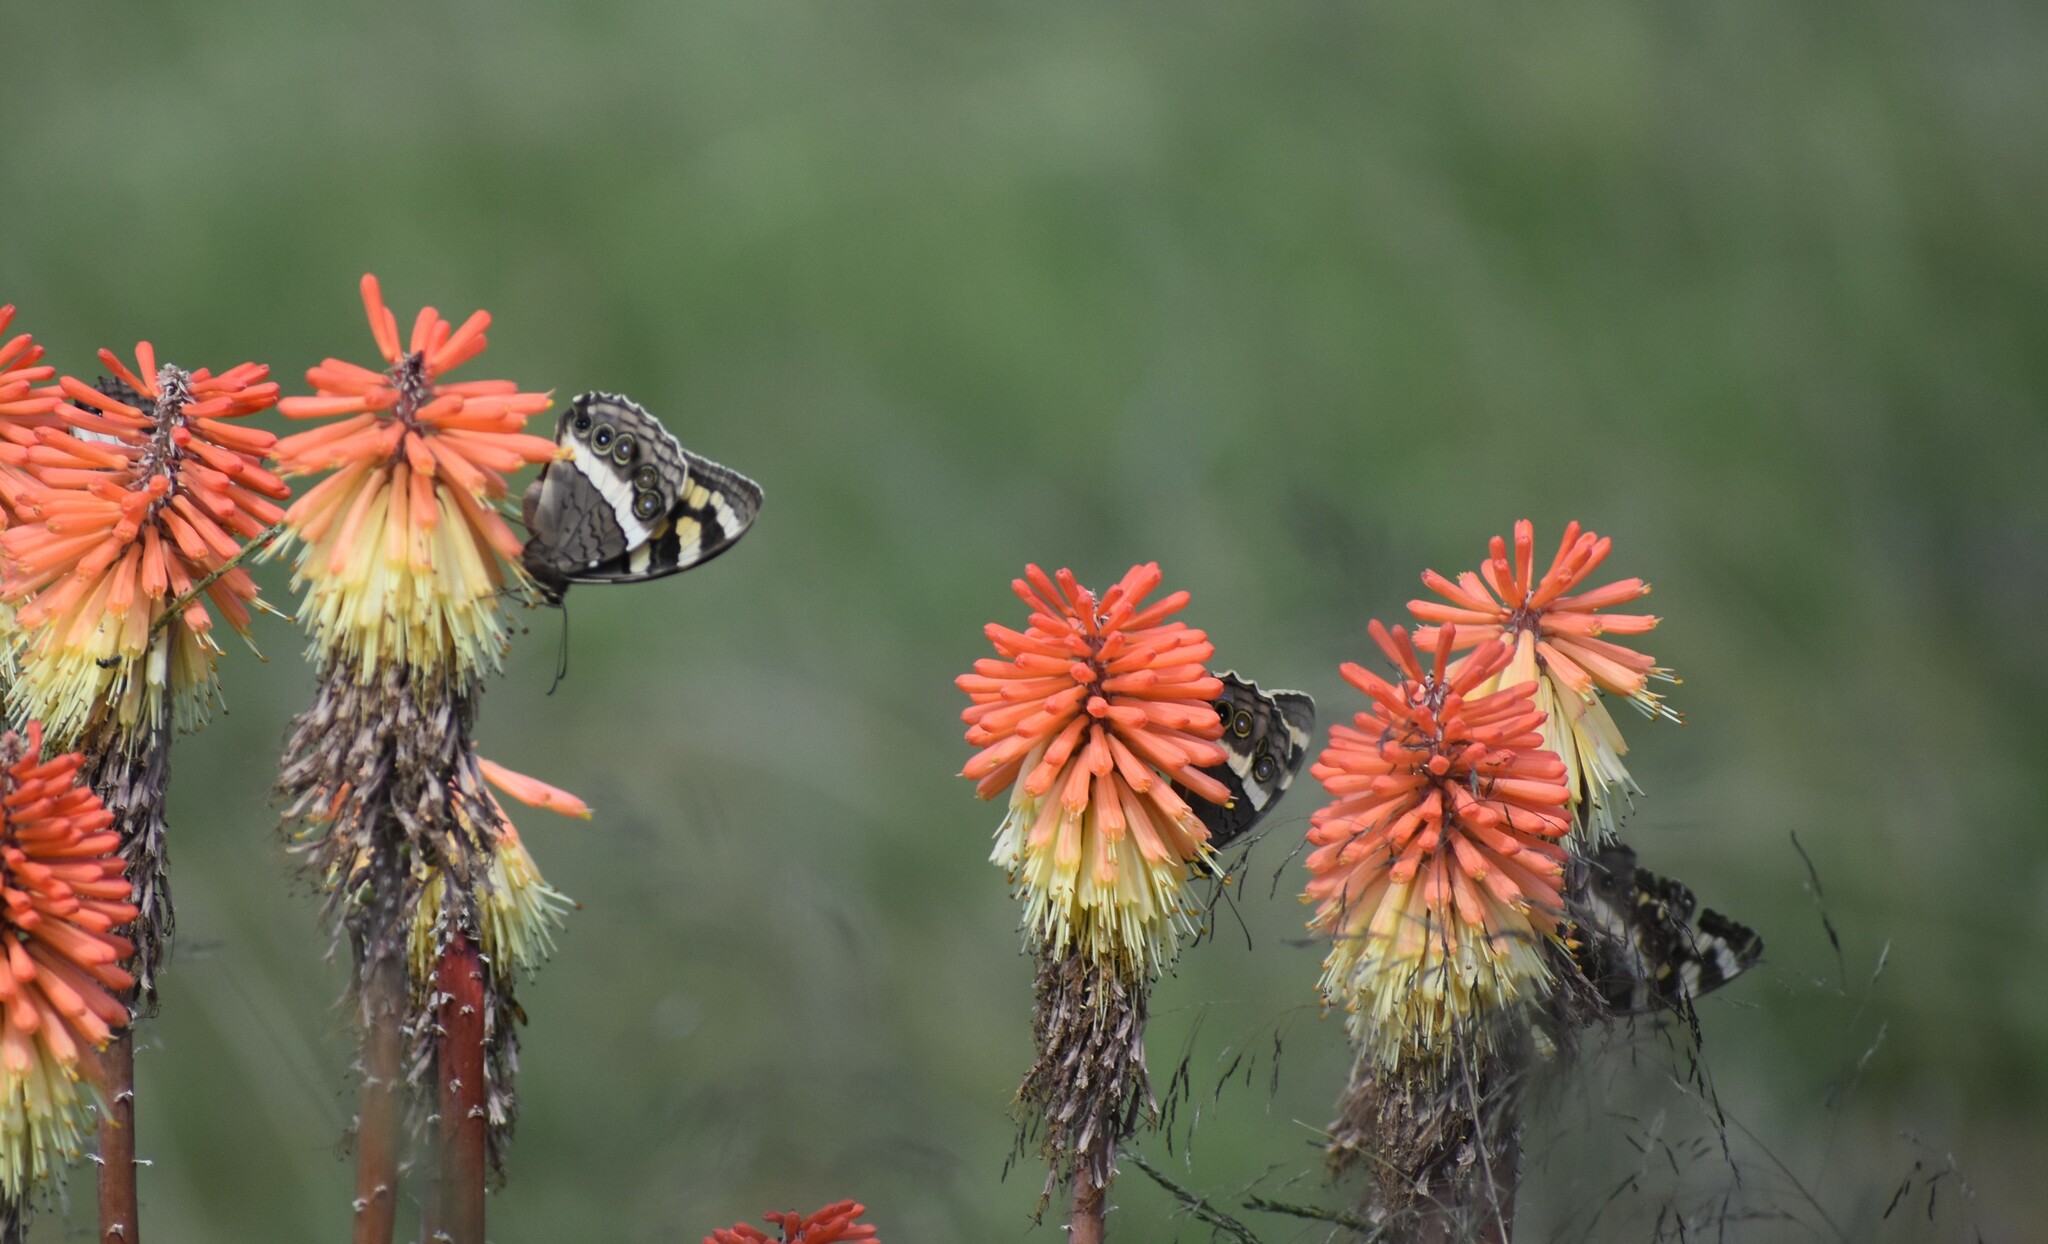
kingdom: Animalia
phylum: Arthropoda
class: Insecta
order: Lepidoptera
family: Nymphalidae
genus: Meneris
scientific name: Meneris Aeropetes tulbaghia
